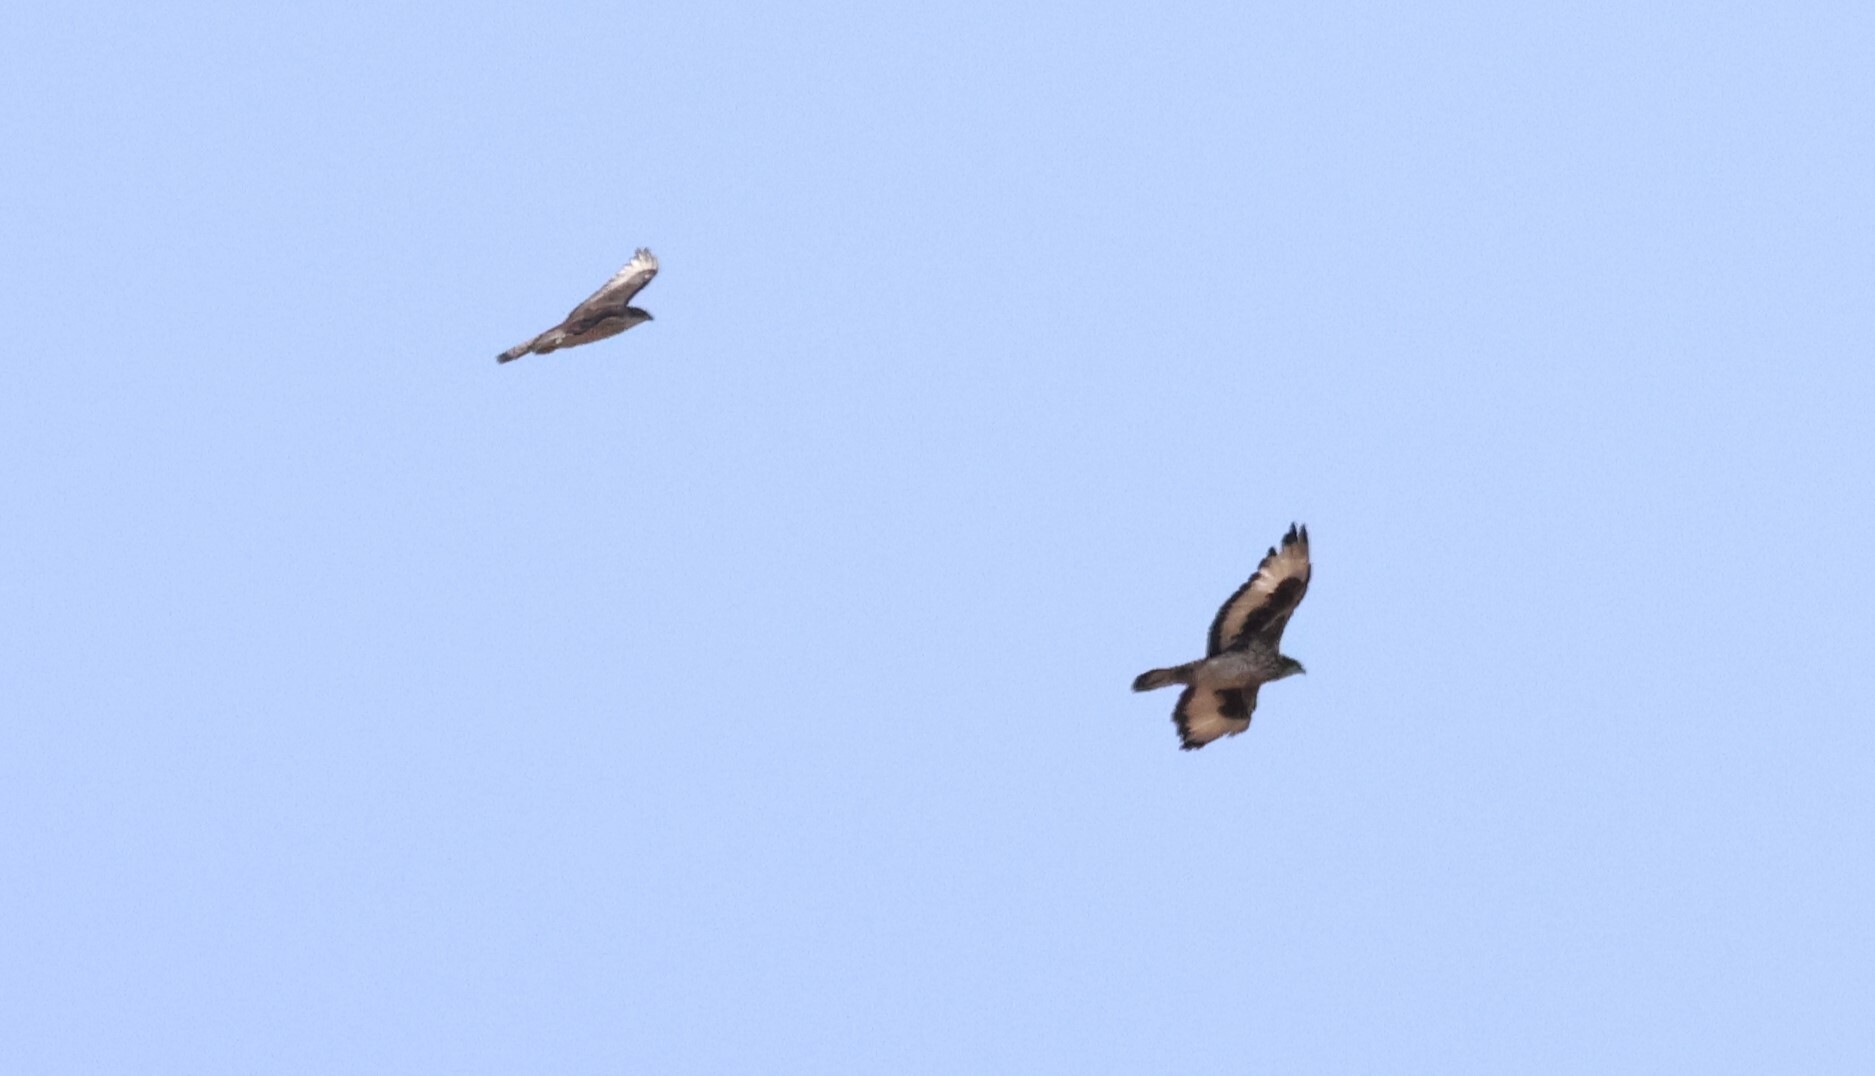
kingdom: Animalia
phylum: Chordata
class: Aves
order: Accipitriformes
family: Accipitridae
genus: Aquila
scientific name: Aquila spilogaster
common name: African hawk-eagle
